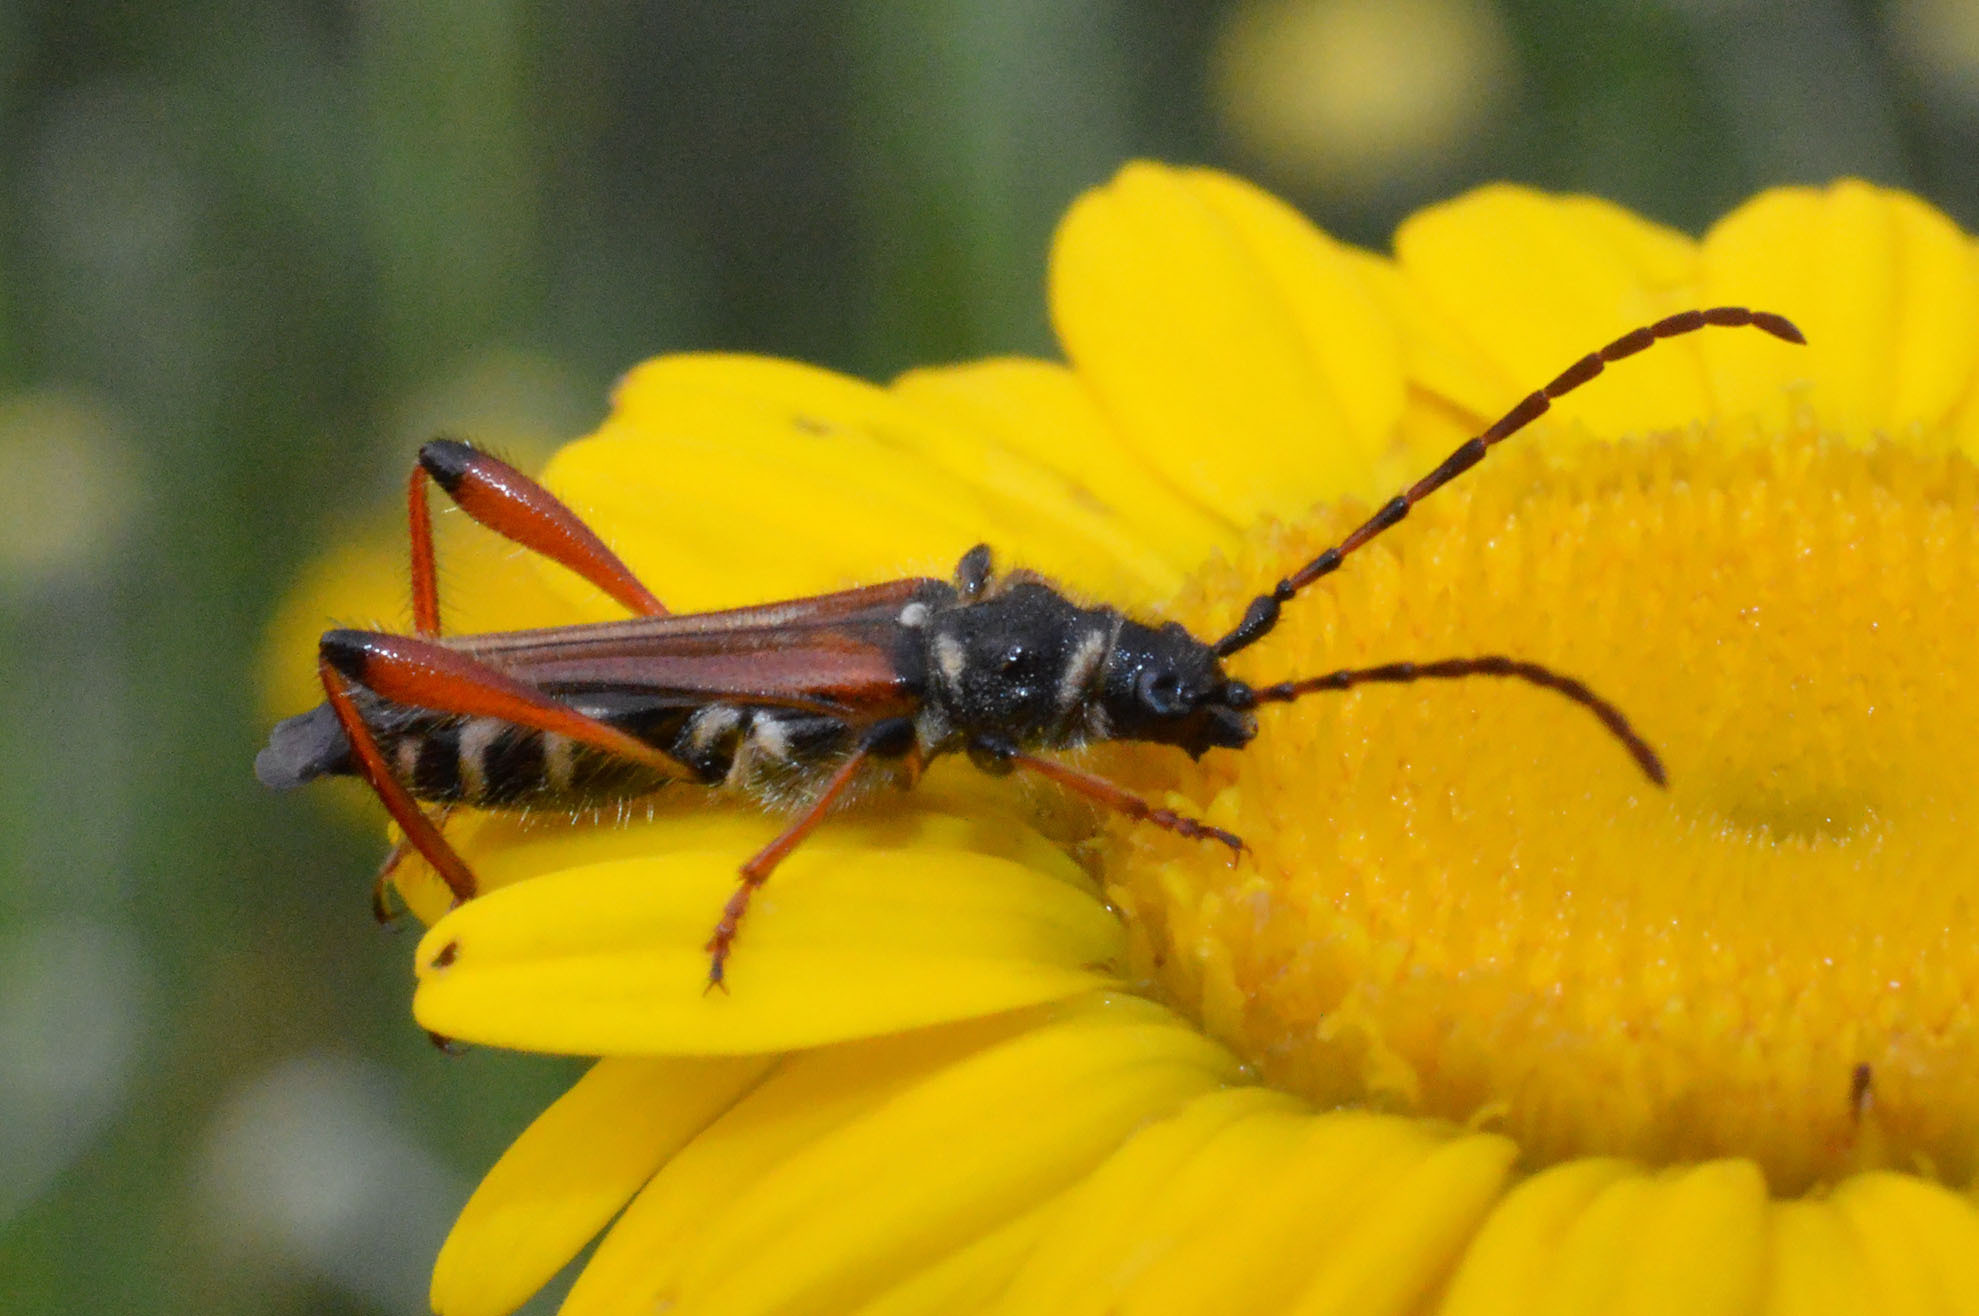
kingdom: Animalia
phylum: Arthropoda
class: Insecta
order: Coleoptera
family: Cerambycidae
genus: Stenopterus
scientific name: Stenopterus rufus
